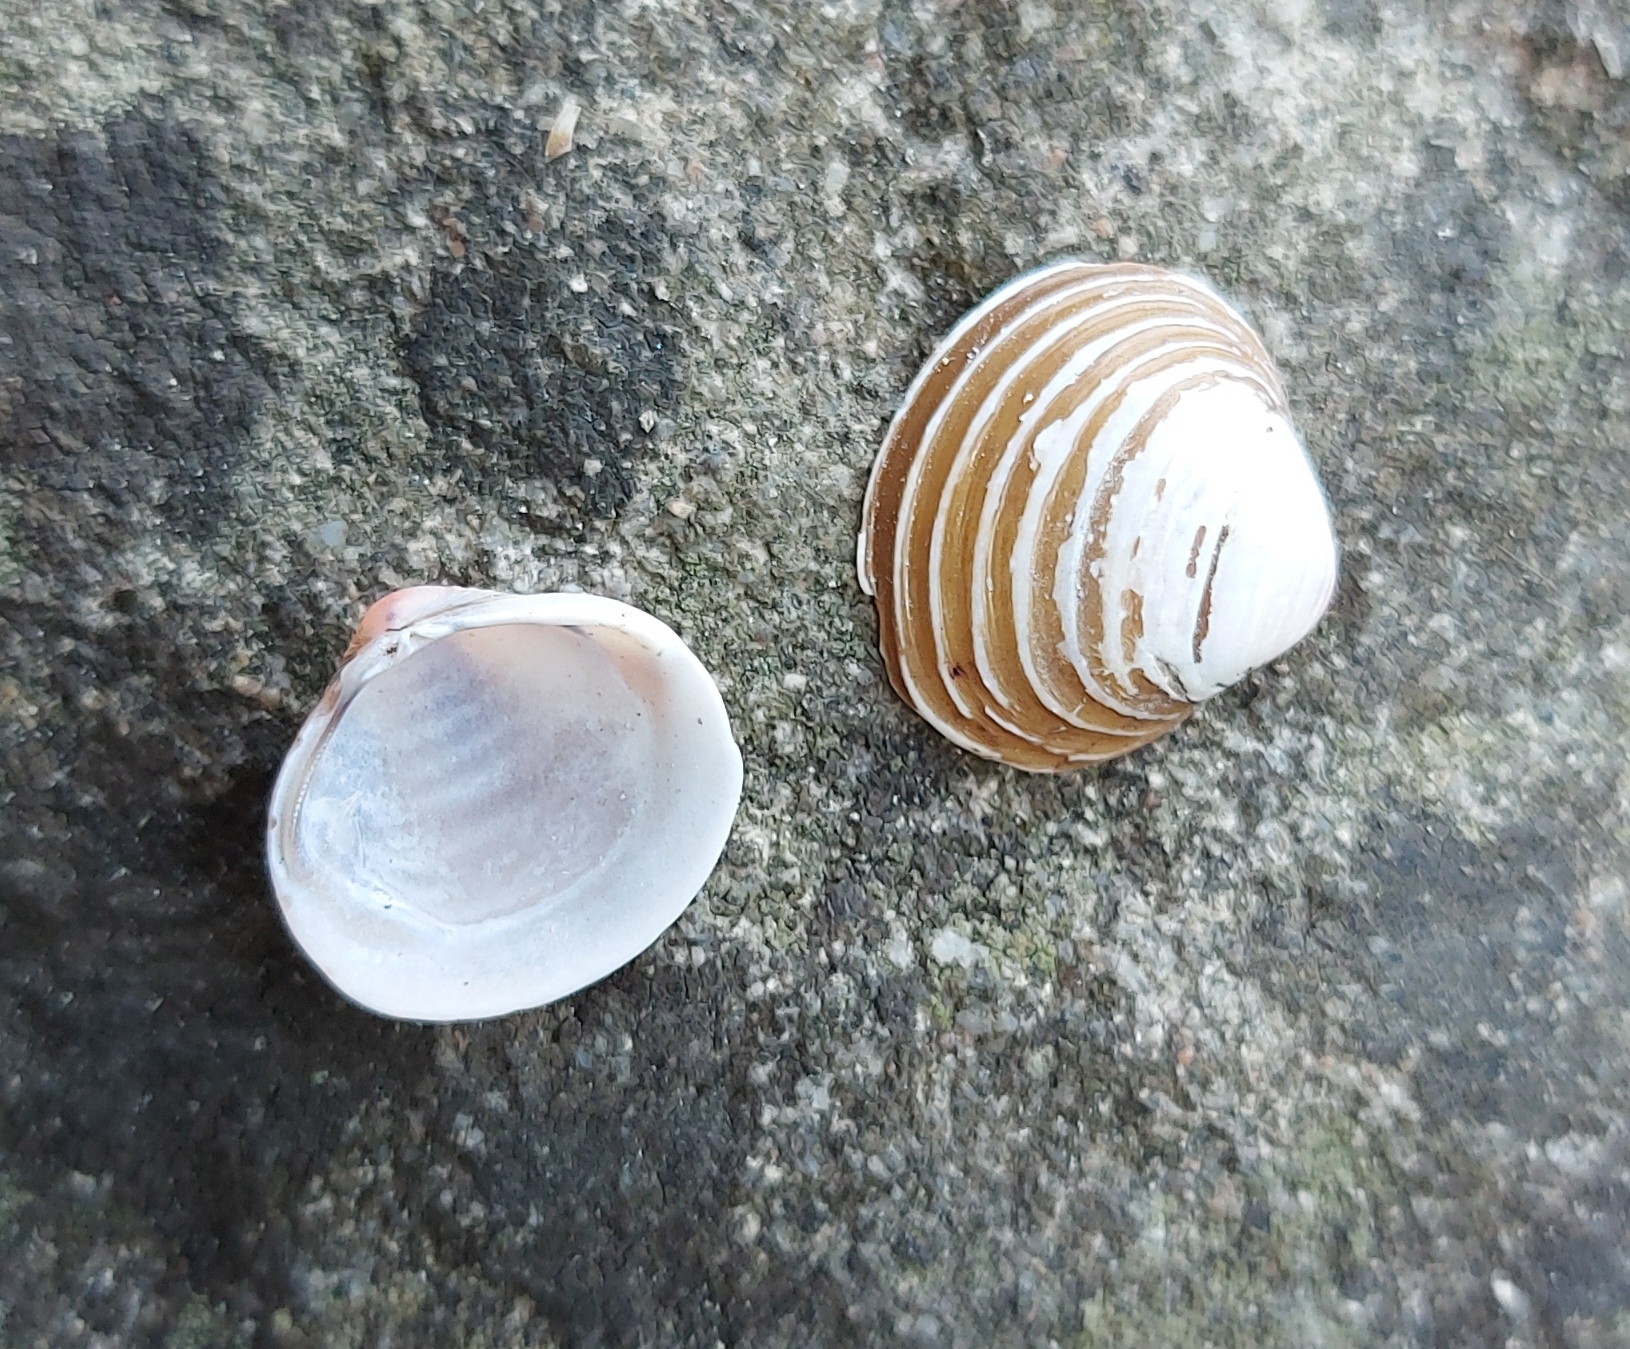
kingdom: Animalia
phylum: Mollusca
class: Bivalvia
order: Venerida
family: Cyrenidae
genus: Corbicula
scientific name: Corbicula fluminea
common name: Asian clam
